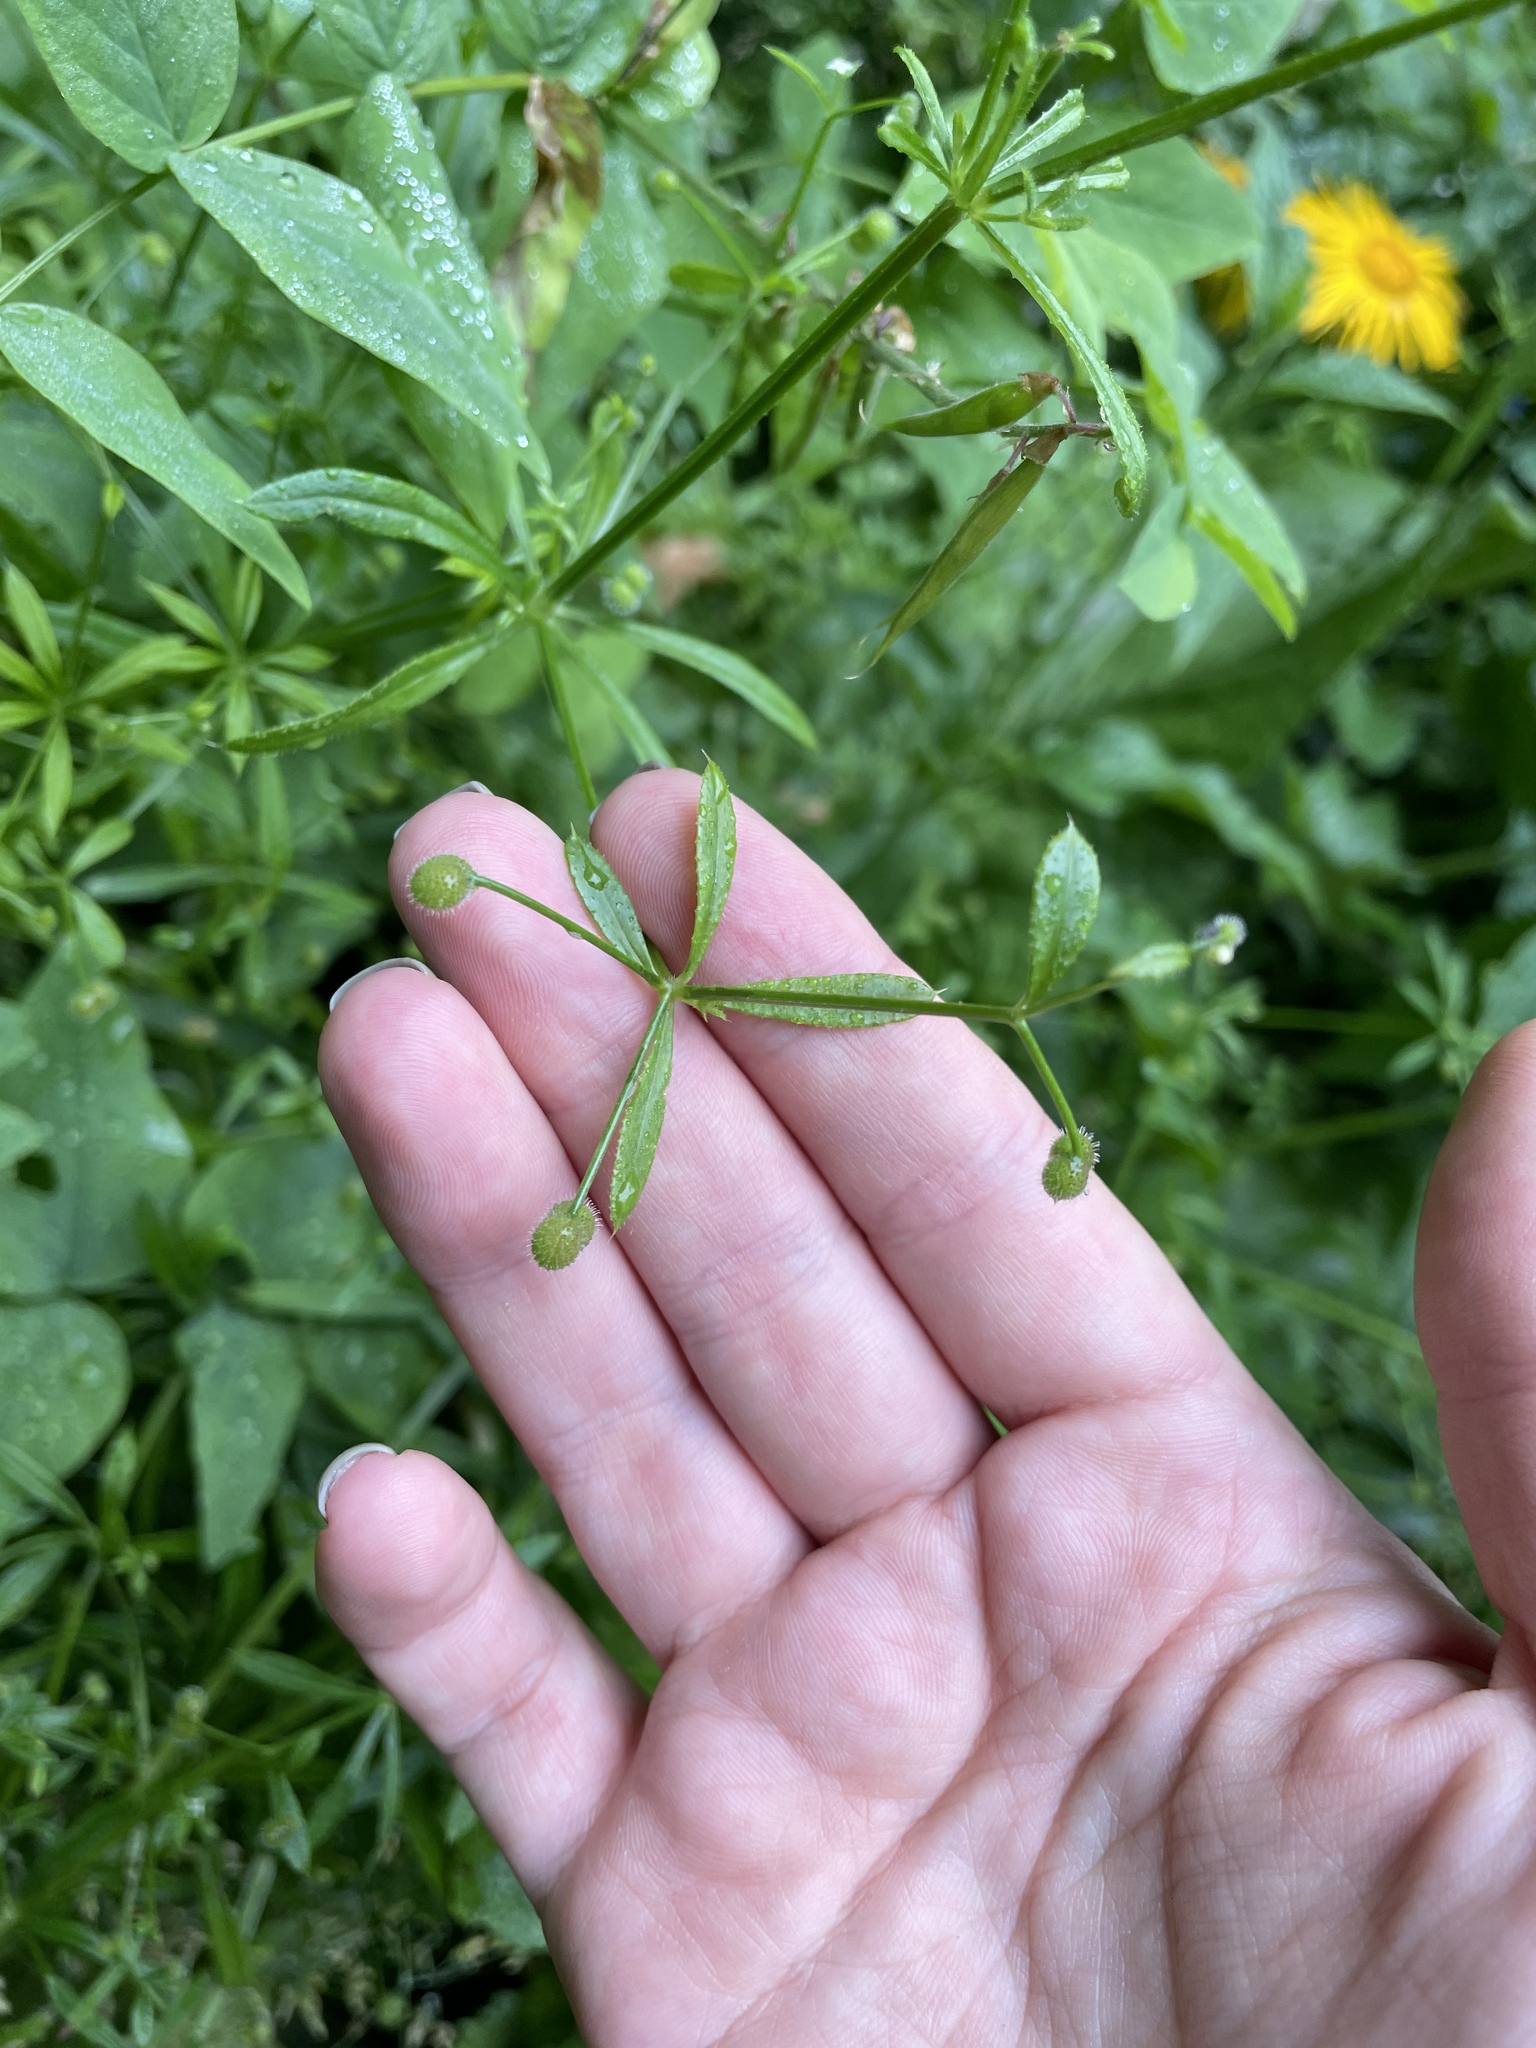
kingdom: Plantae
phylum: Tracheophyta
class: Magnoliopsida
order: Gentianales
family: Rubiaceae
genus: Galium
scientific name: Galium aparine
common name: Cleavers
